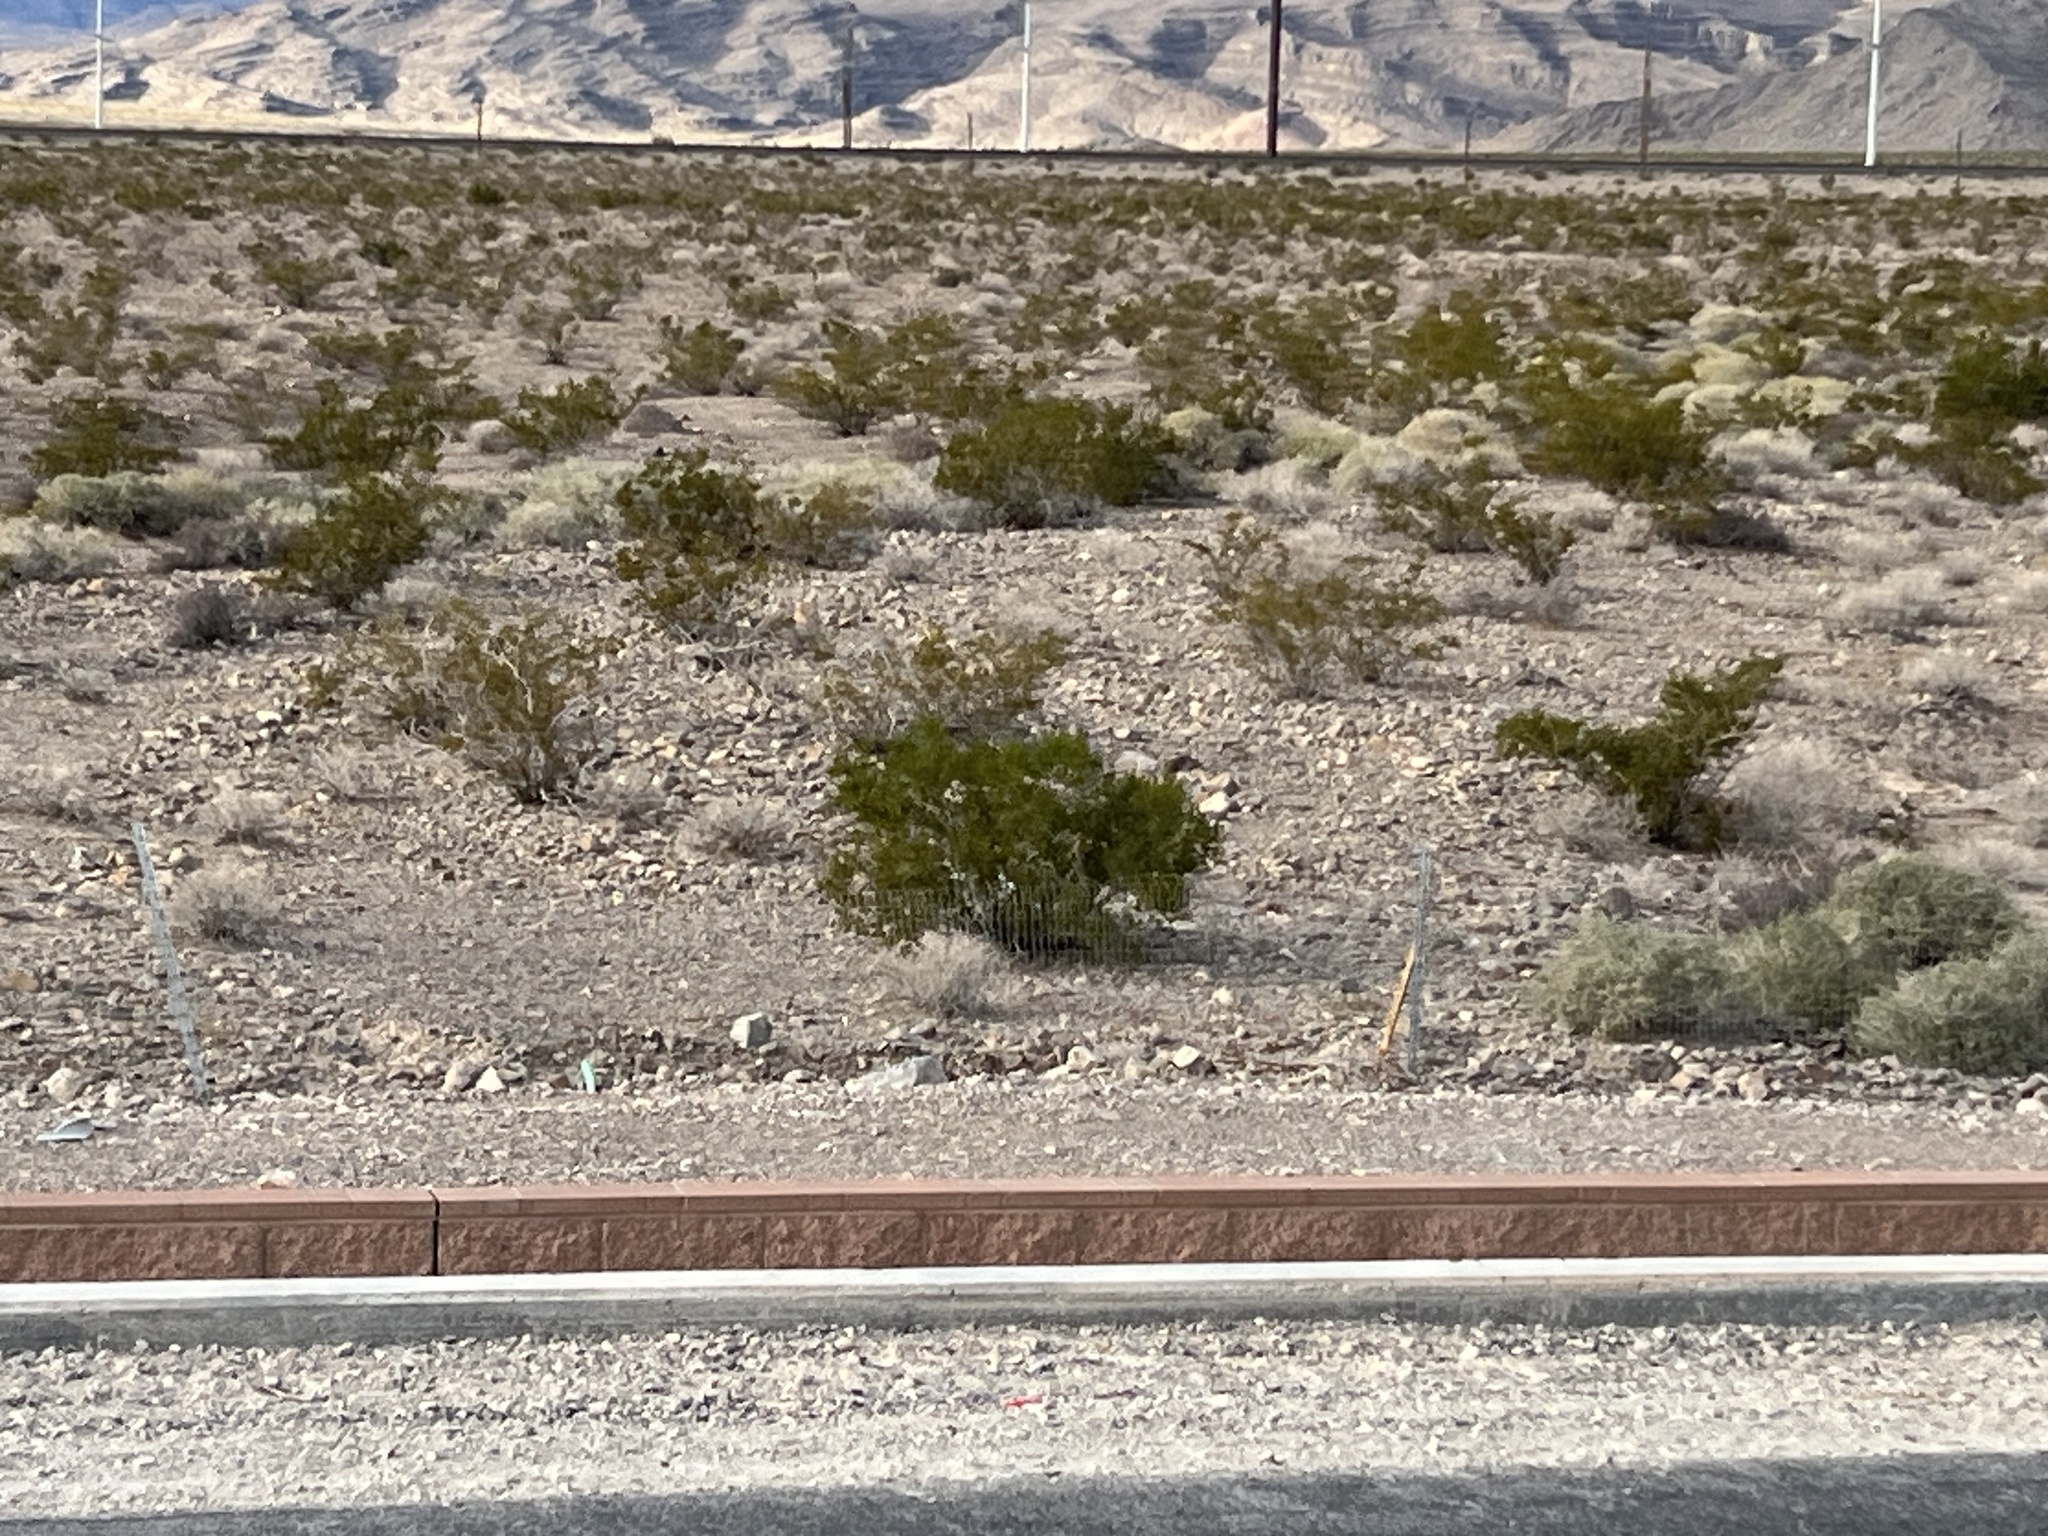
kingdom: Plantae
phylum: Tracheophyta
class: Magnoliopsida
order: Zygophyllales
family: Zygophyllaceae
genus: Larrea
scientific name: Larrea tridentata
